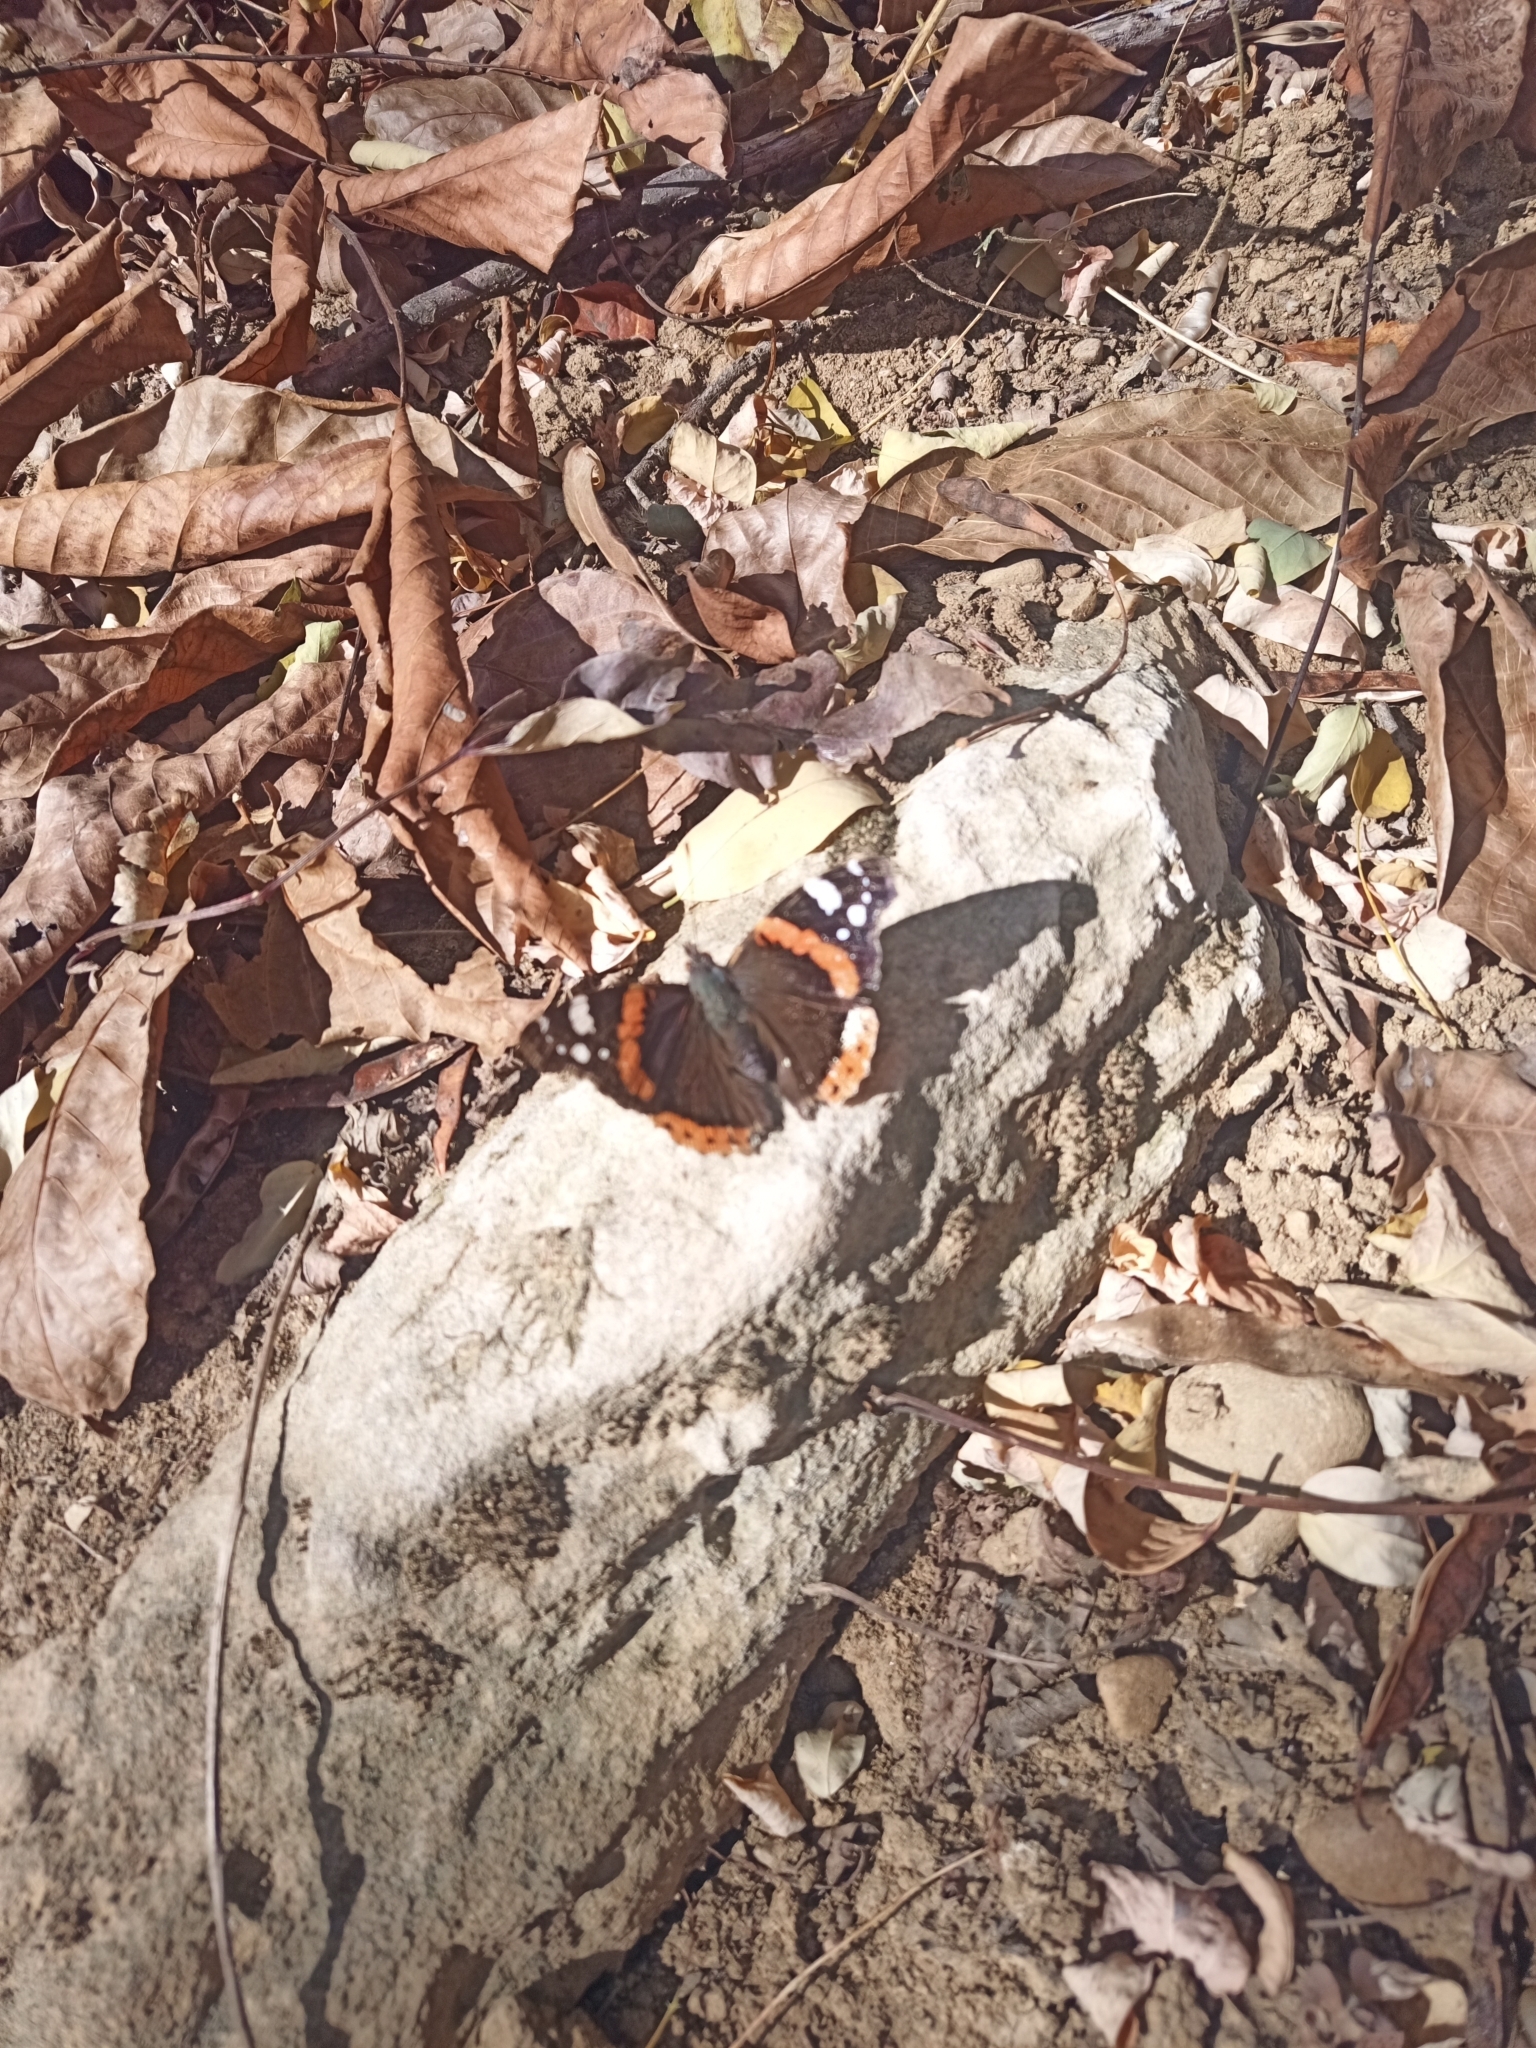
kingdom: Animalia
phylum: Arthropoda
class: Insecta
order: Lepidoptera
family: Nymphalidae
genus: Vanessa
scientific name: Vanessa atalanta
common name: Red admiral
